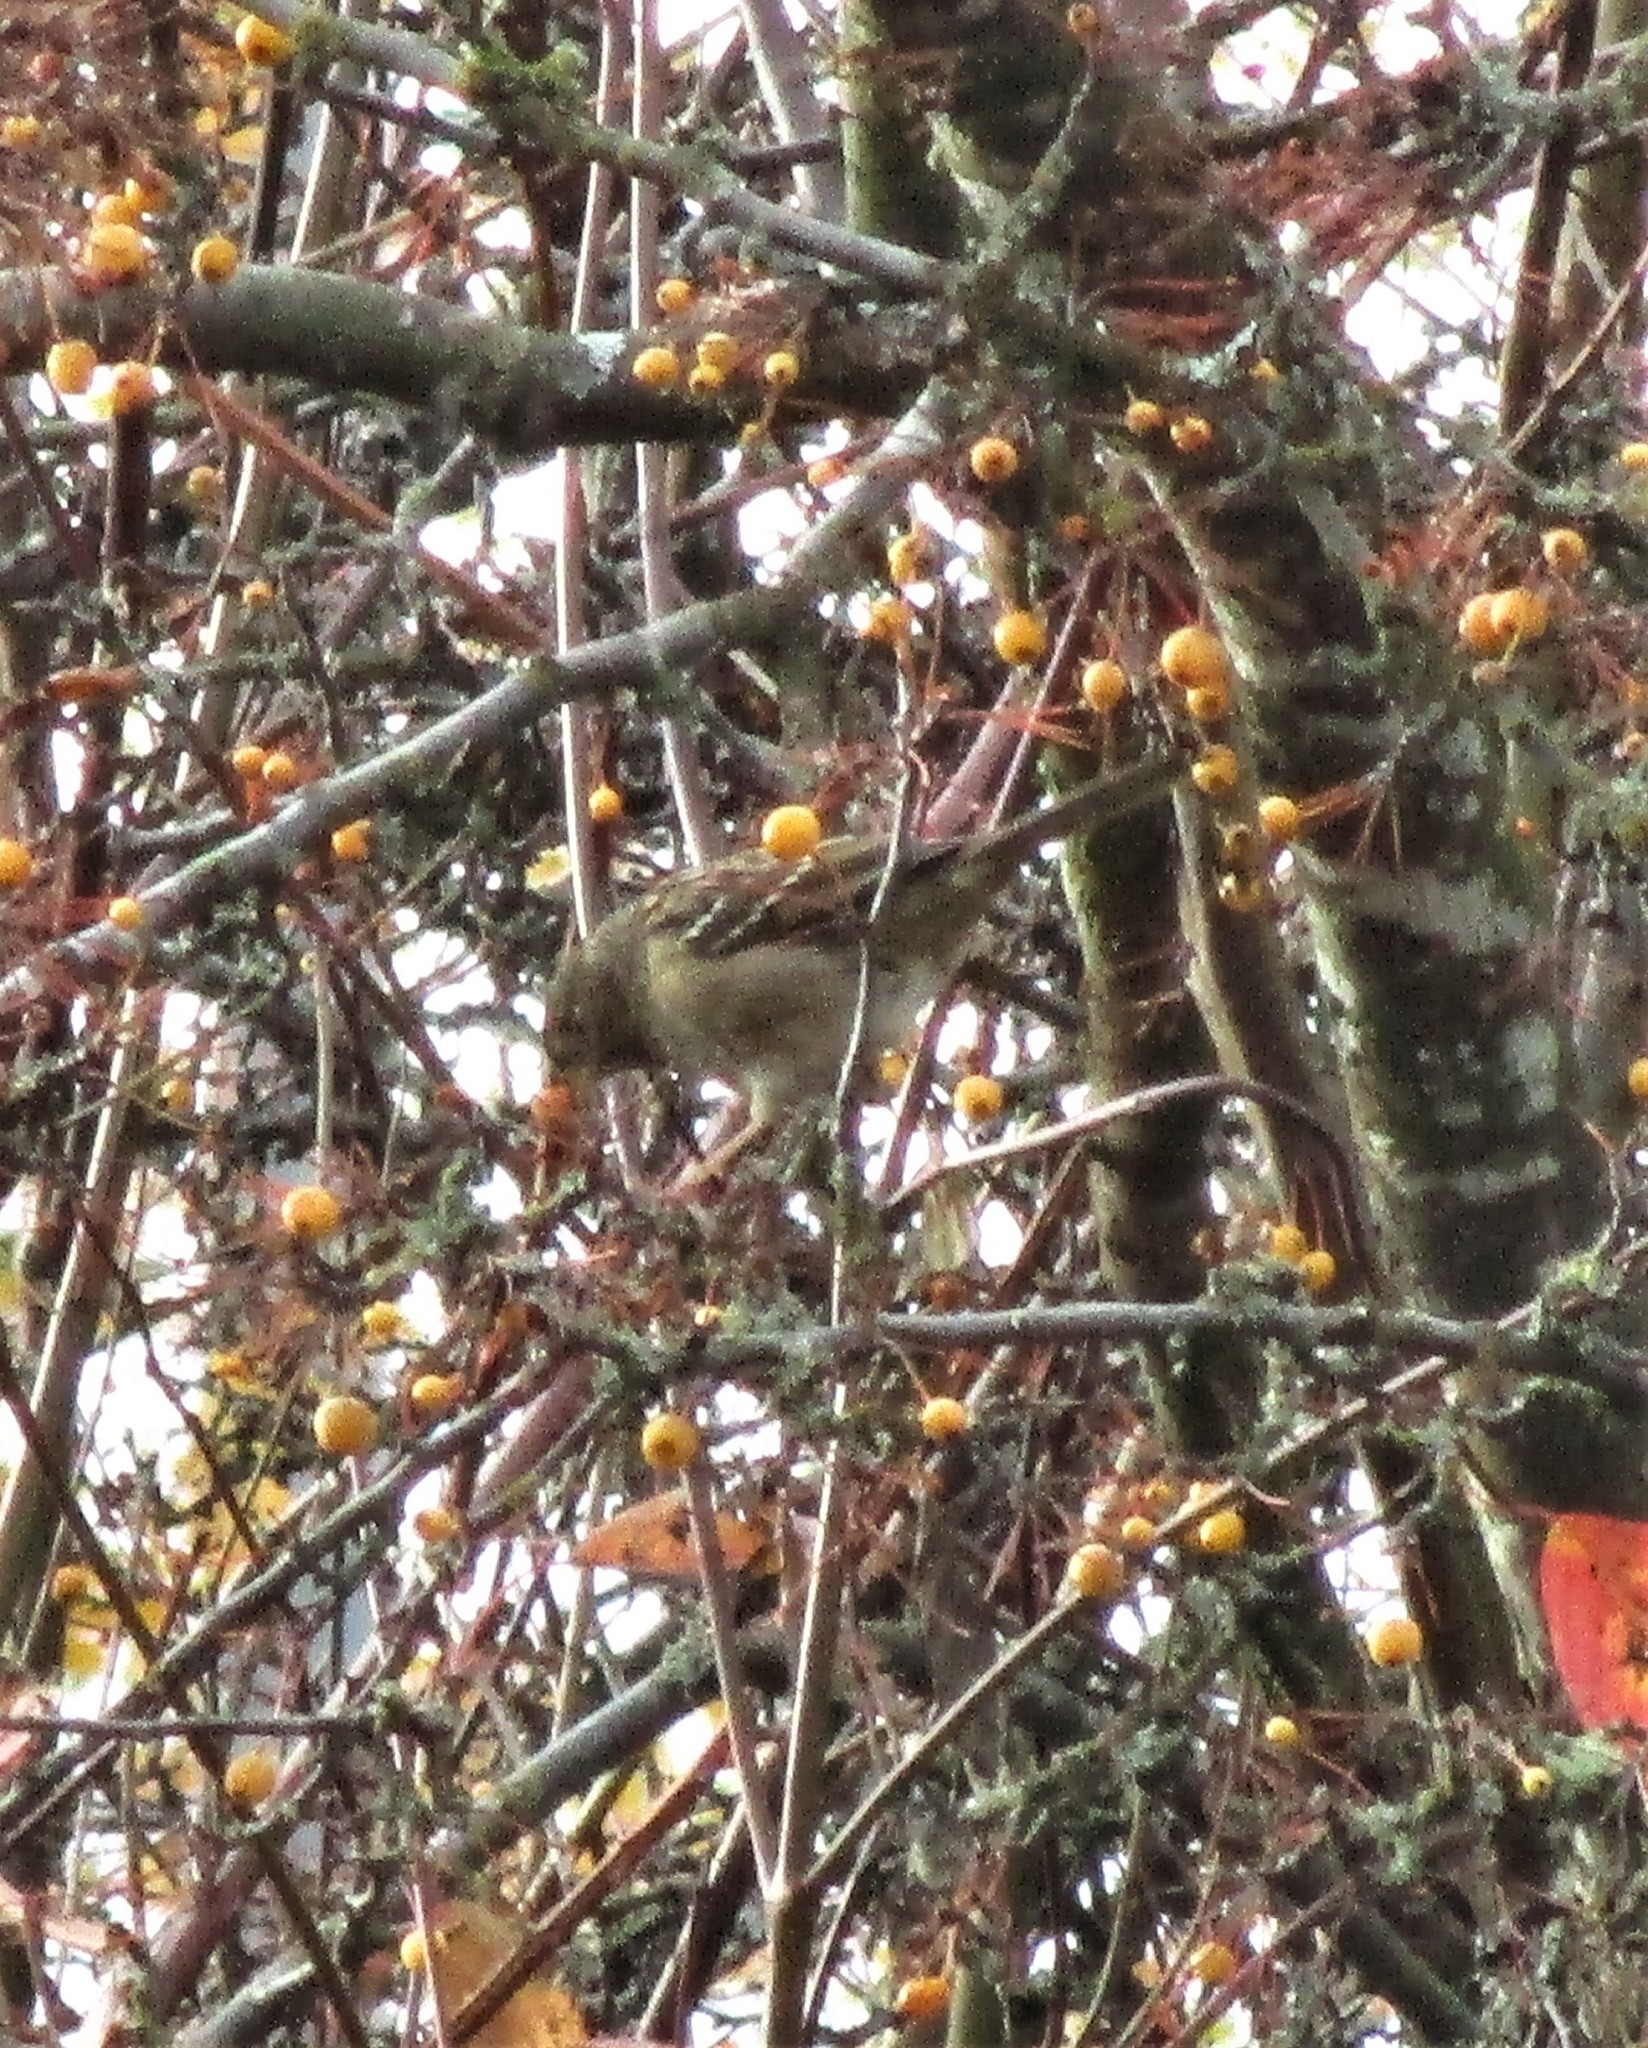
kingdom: Animalia
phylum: Chordata
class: Aves
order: Passeriformes
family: Passerellidae
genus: Zonotrichia
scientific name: Zonotrichia atricapilla
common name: Golden-crowned sparrow
